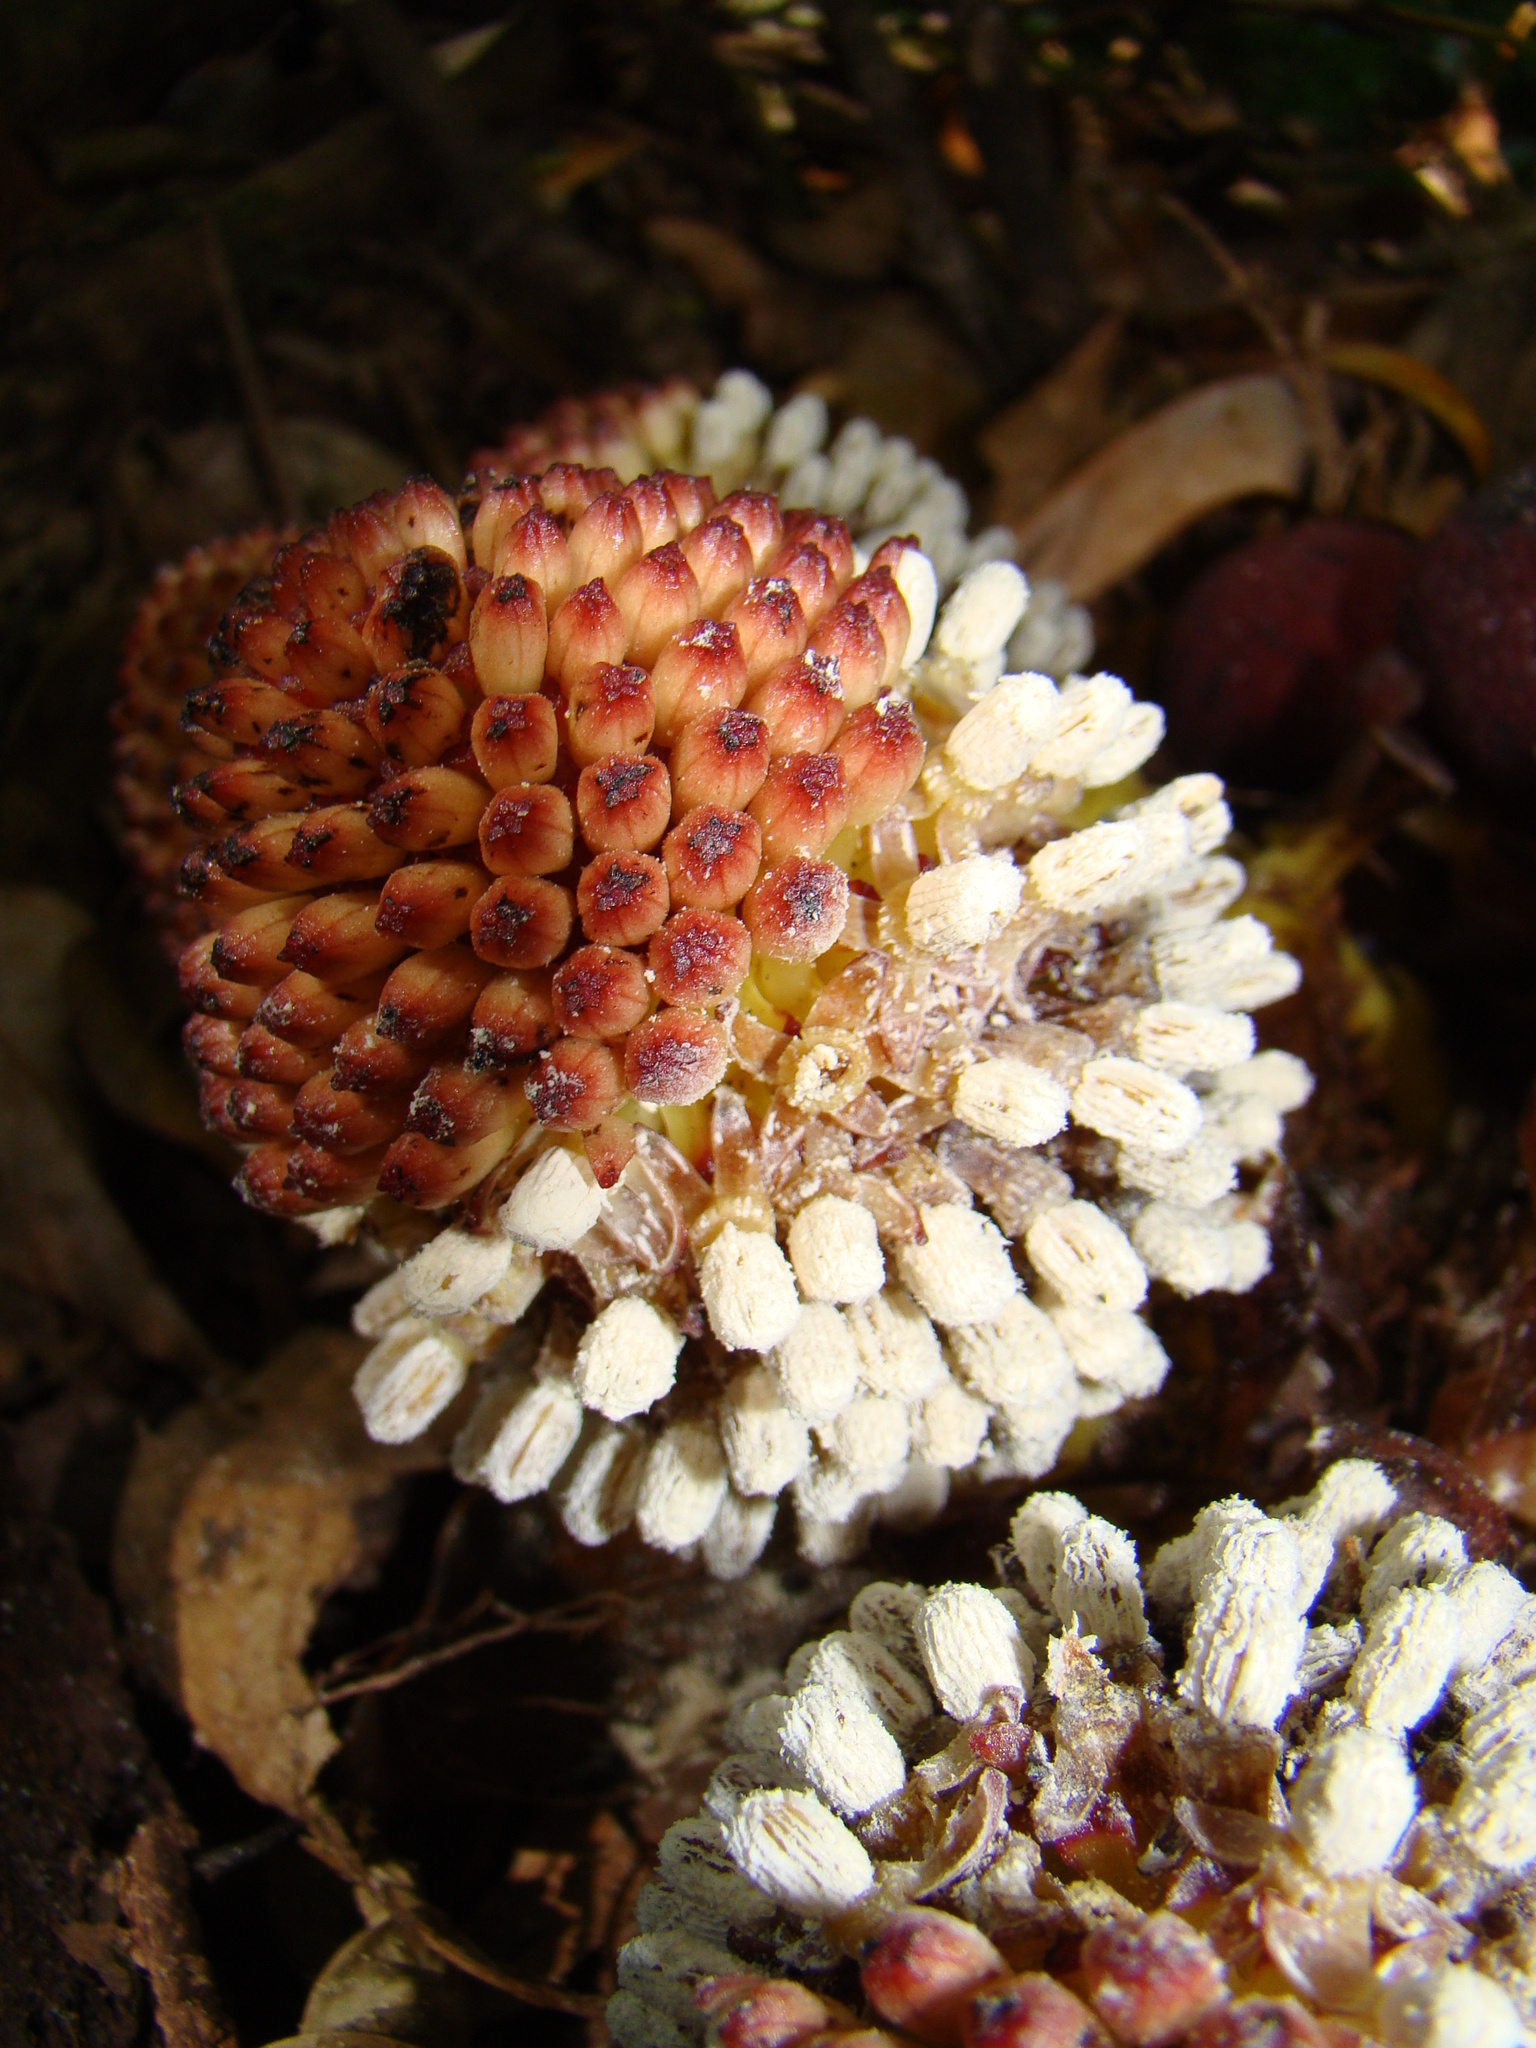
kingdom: Plantae
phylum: Tracheophyta
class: Magnoliopsida
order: Santalales
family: Balanophoraceae
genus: Balanophora
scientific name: Balanophora fungosa
